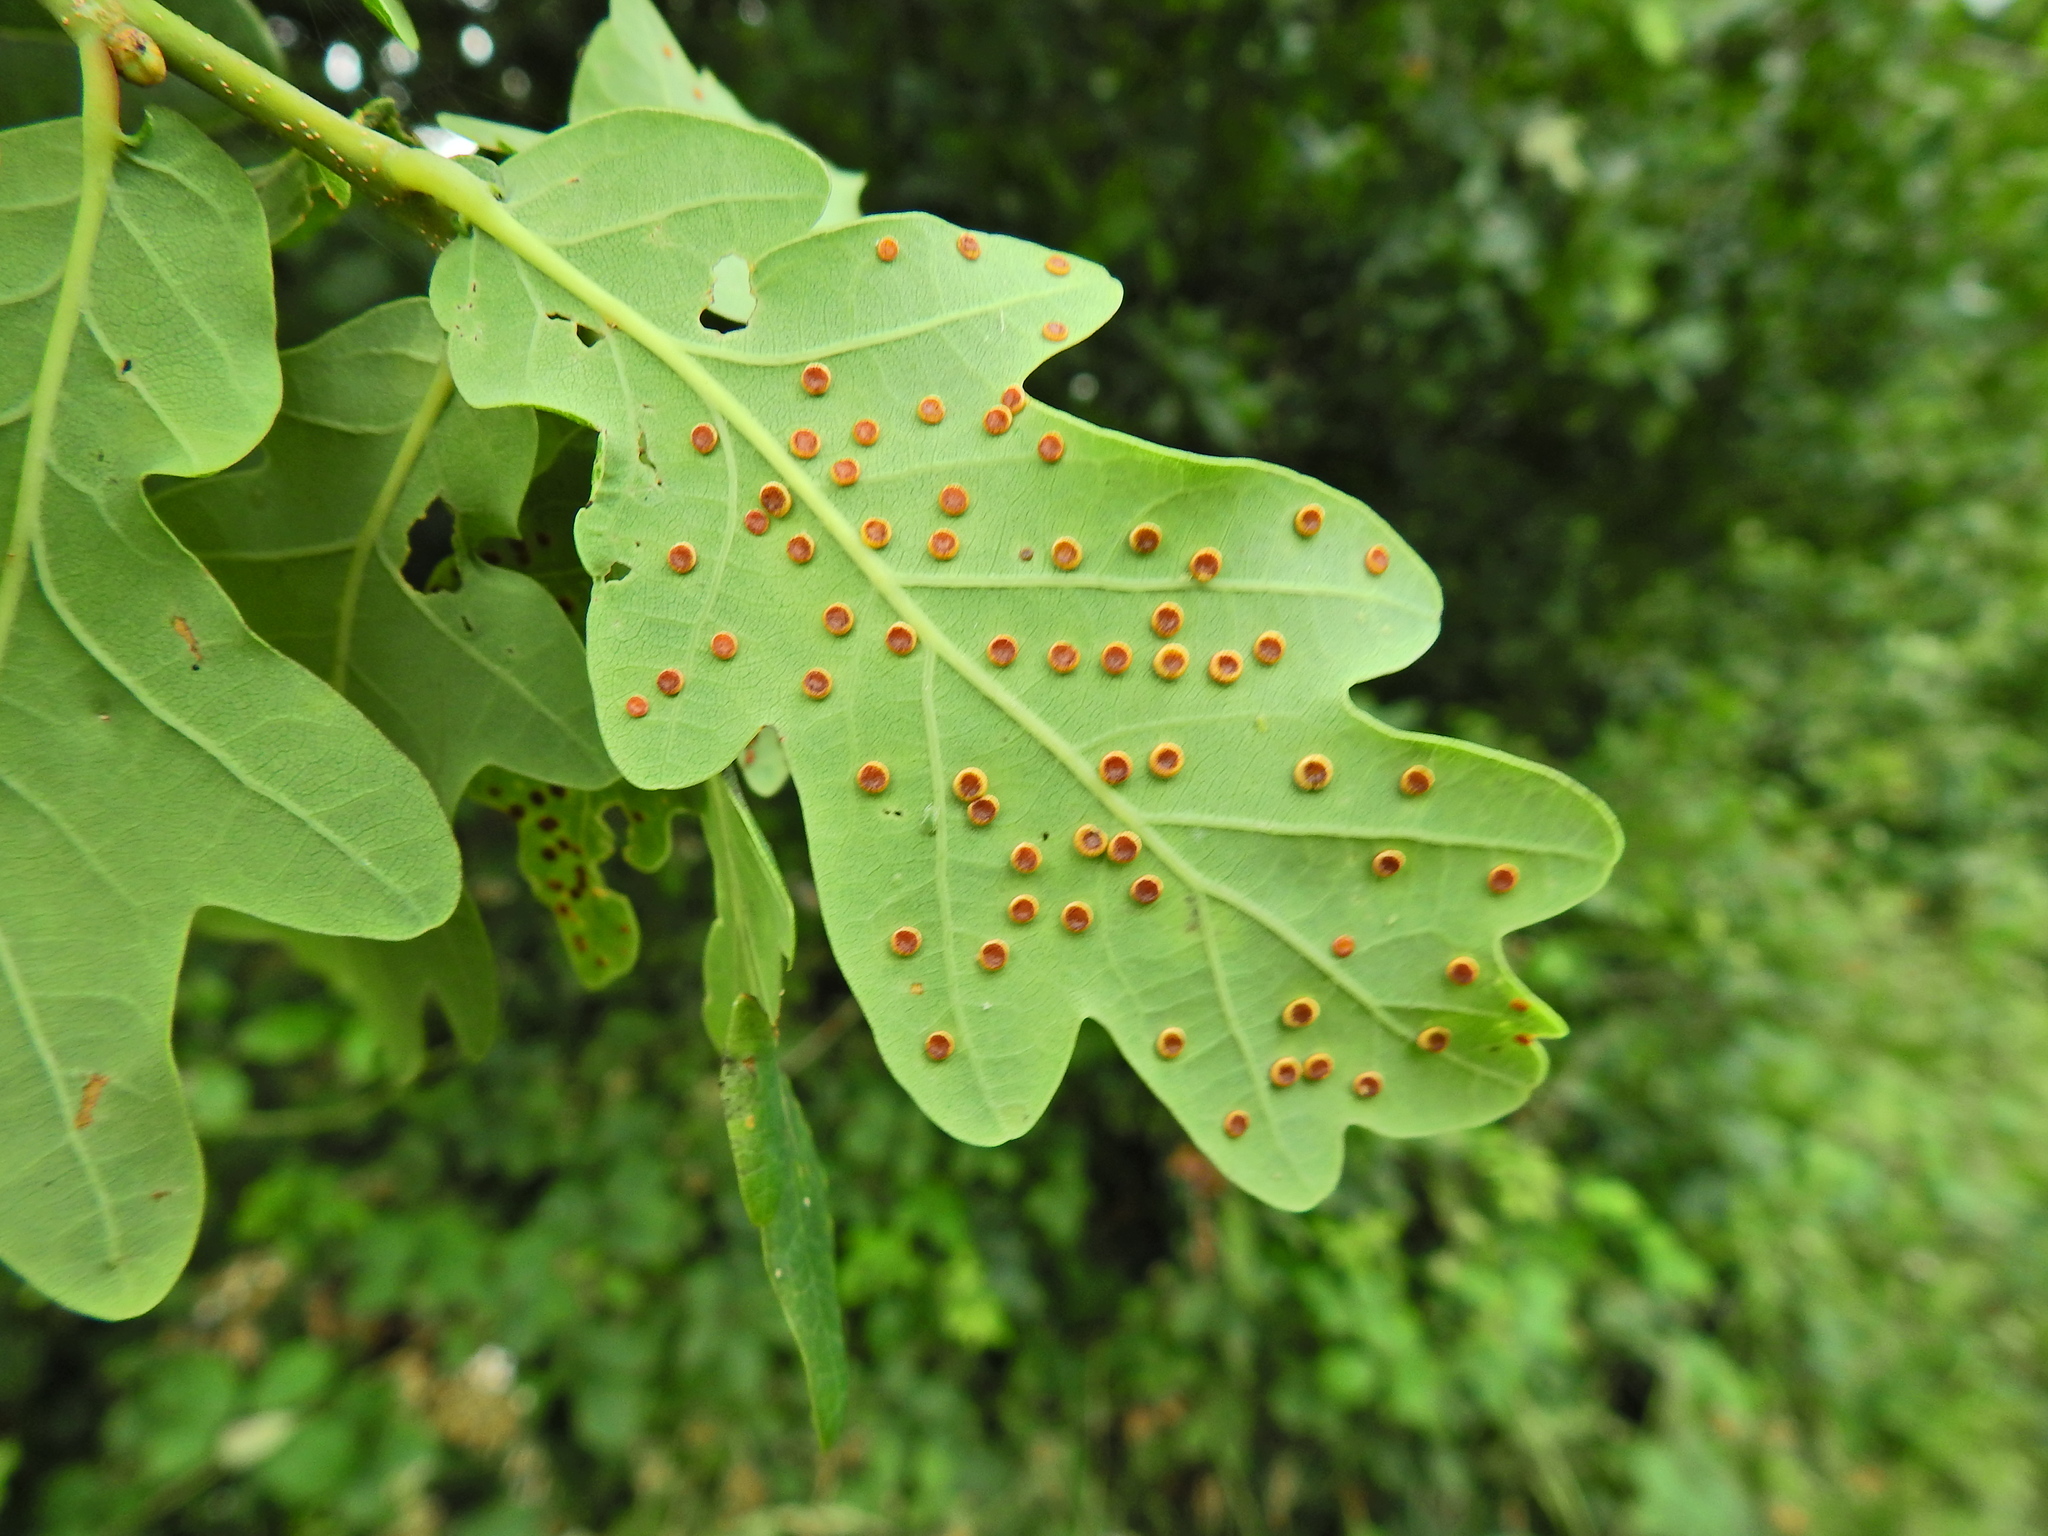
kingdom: Animalia
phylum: Arthropoda
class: Insecta
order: Hymenoptera
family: Cynipidae
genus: Neuroterus
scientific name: Neuroterus numismalis
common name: Silk-button spangle gall
